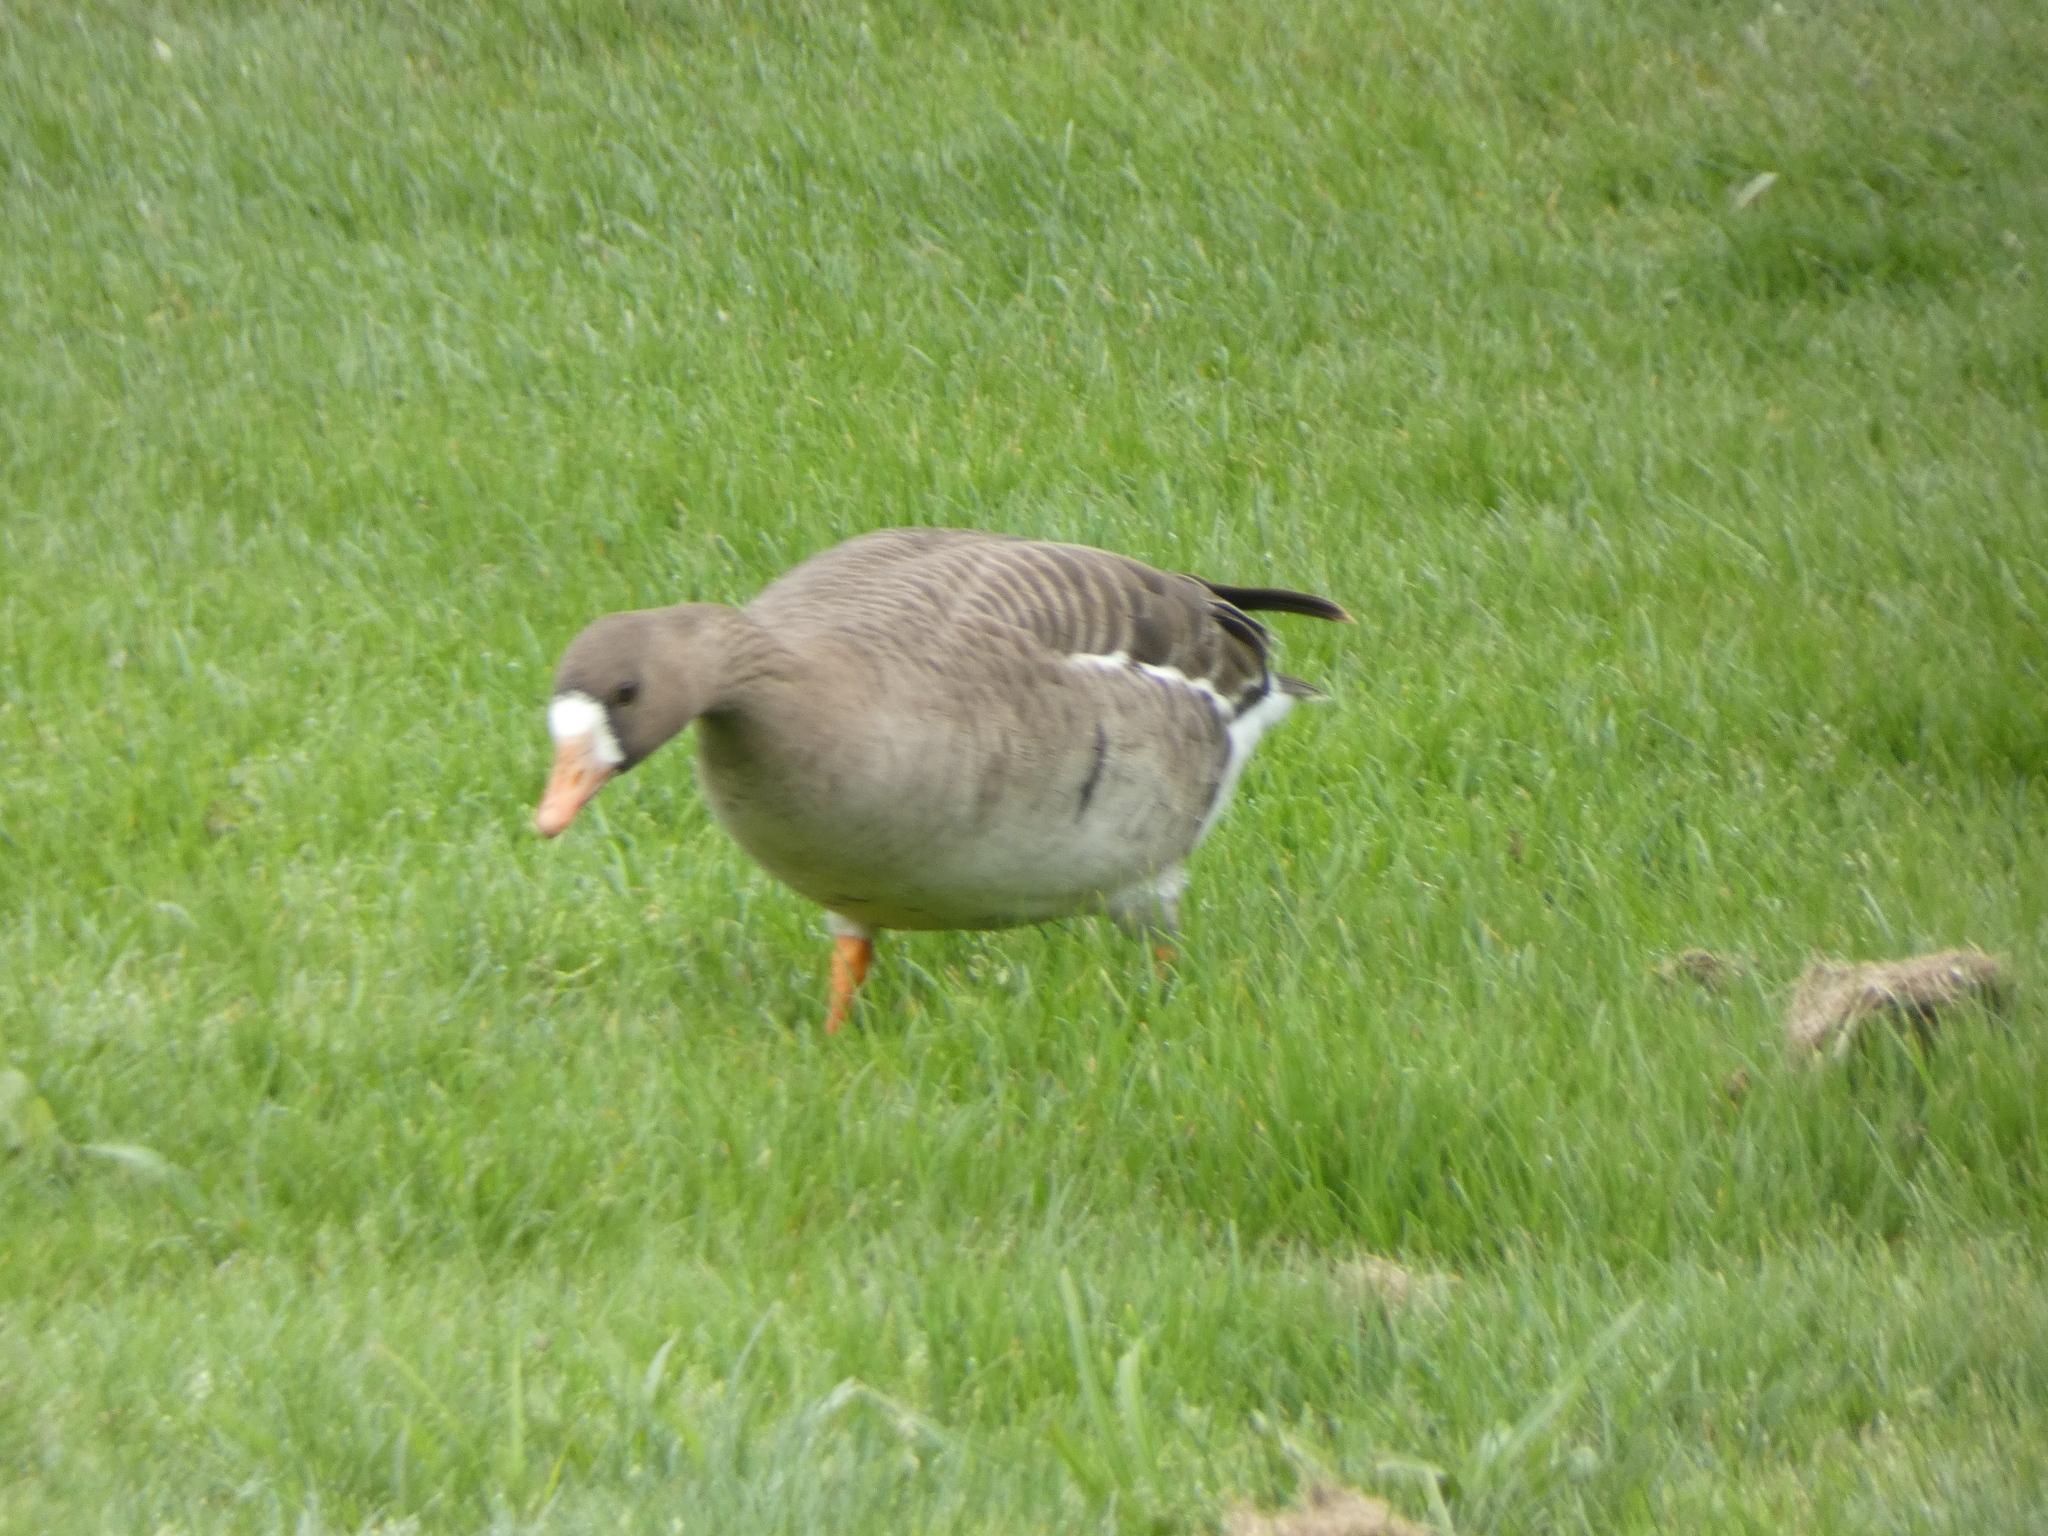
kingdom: Animalia
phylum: Chordata
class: Aves
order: Anseriformes
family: Anatidae
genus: Anser
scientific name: Anser albifrons
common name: Greater white-fronted goose
